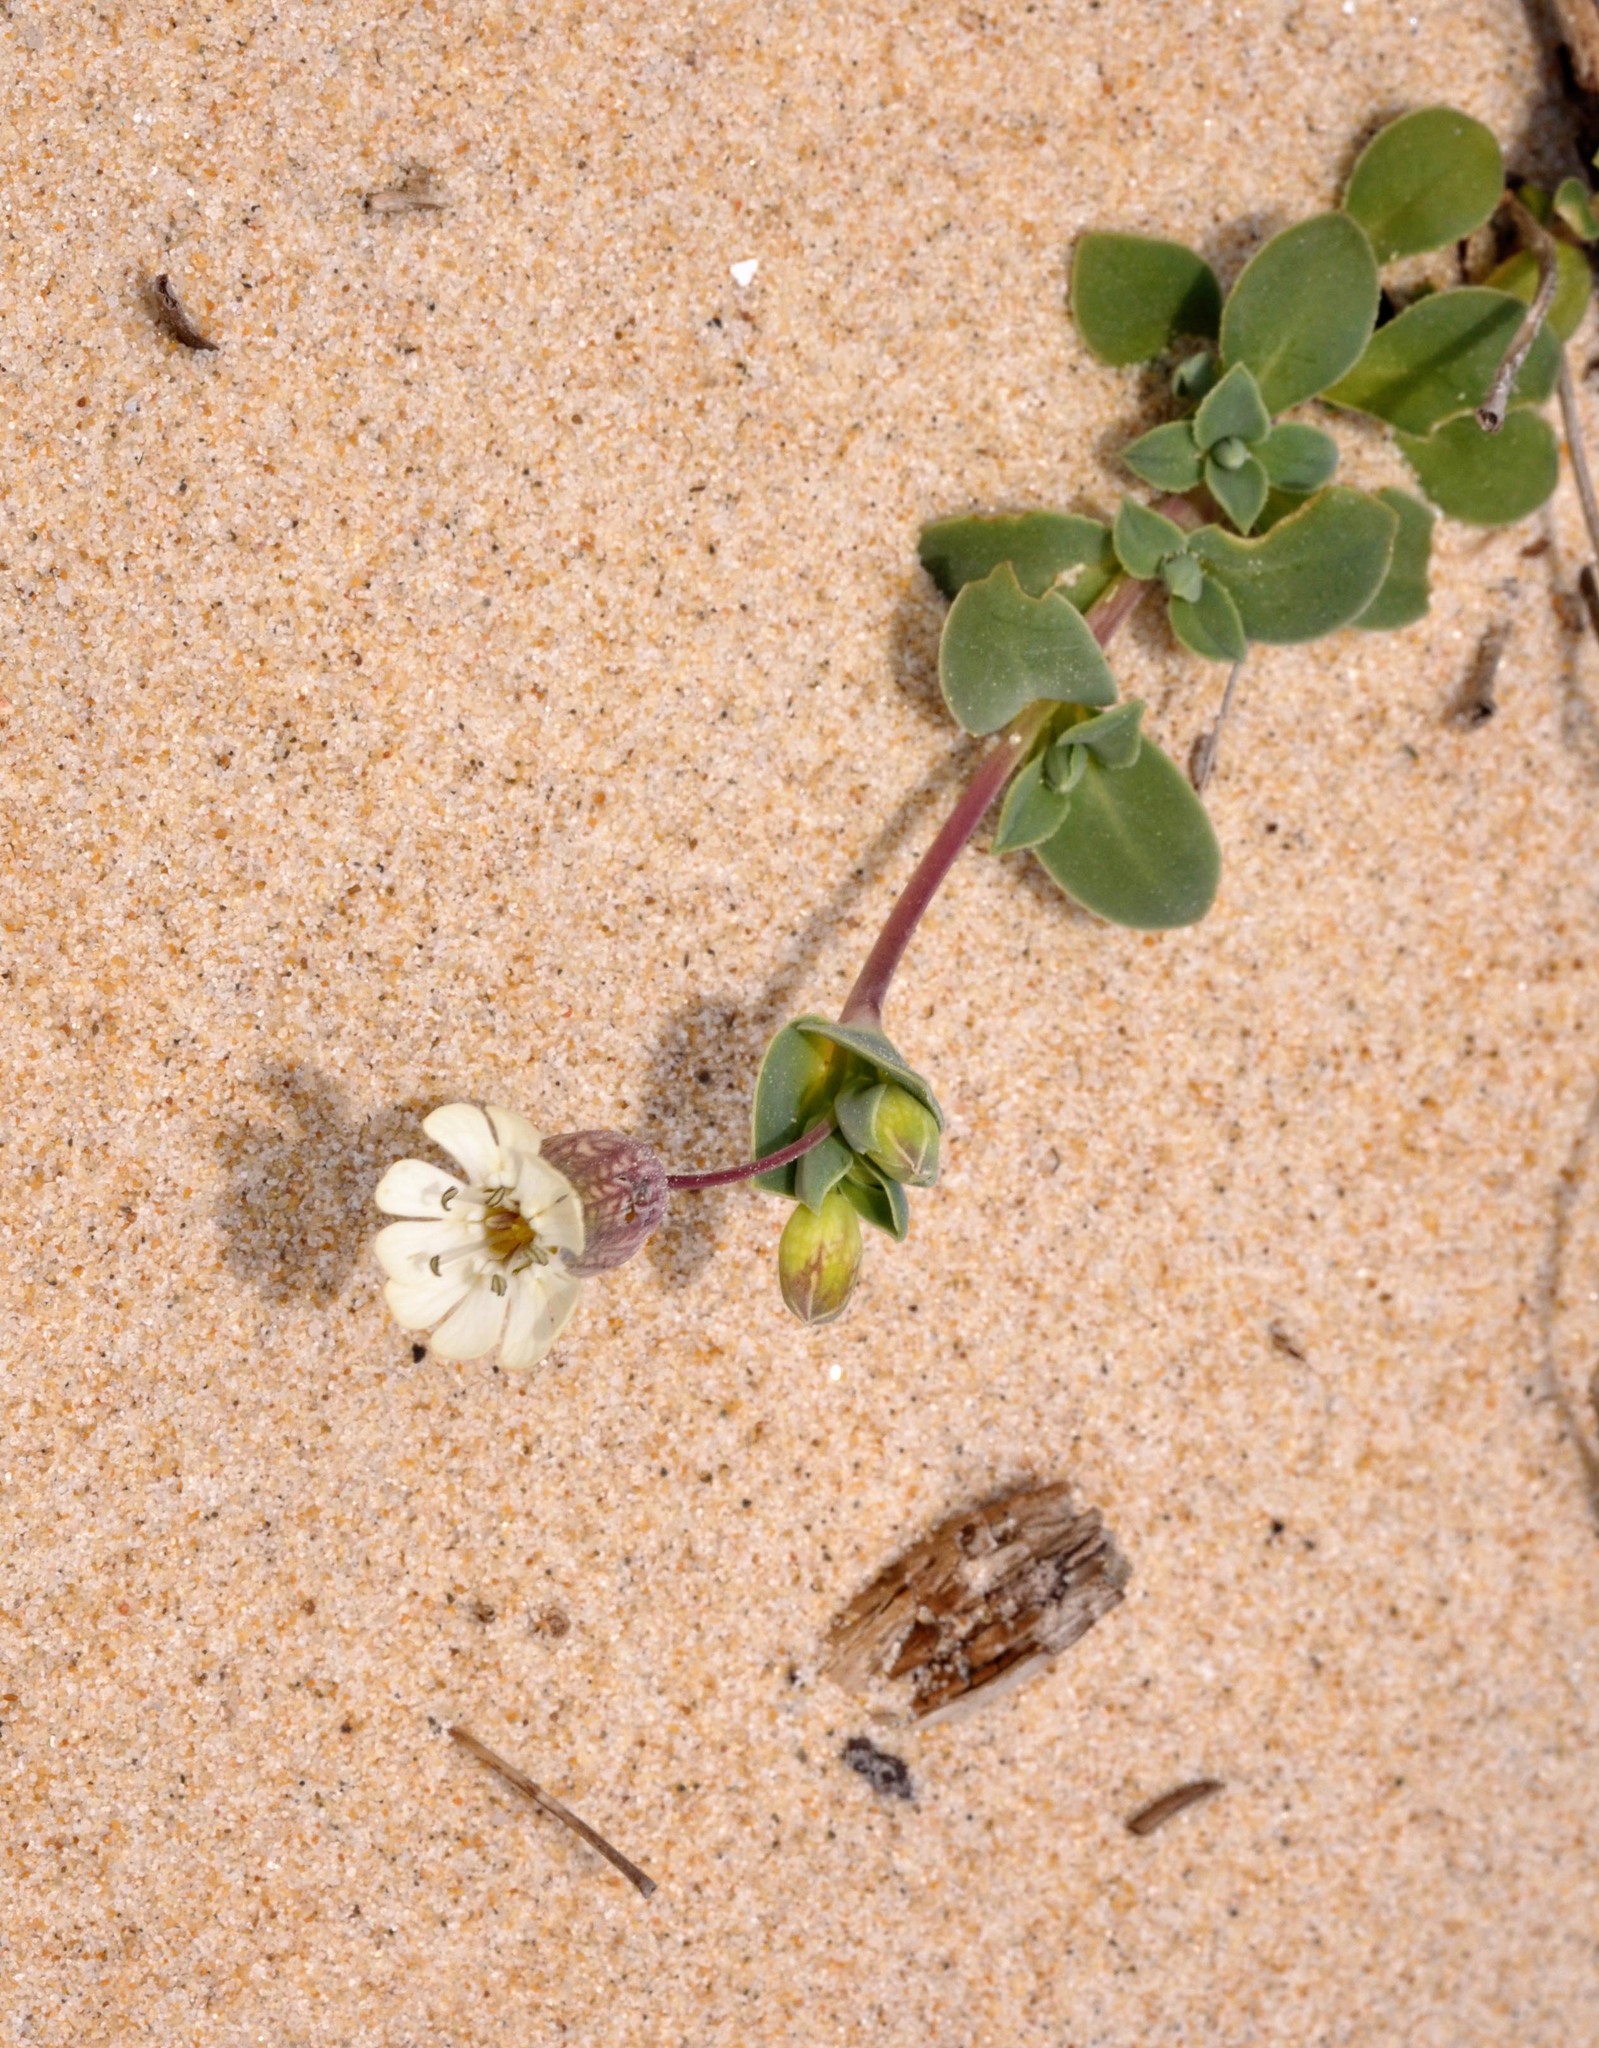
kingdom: Plantae
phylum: Tracheophyta
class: Magnoliopsida
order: Caryophyllales
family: Caryophyllaceae
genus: Silene
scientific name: Silene uniflora
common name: Sea campion
